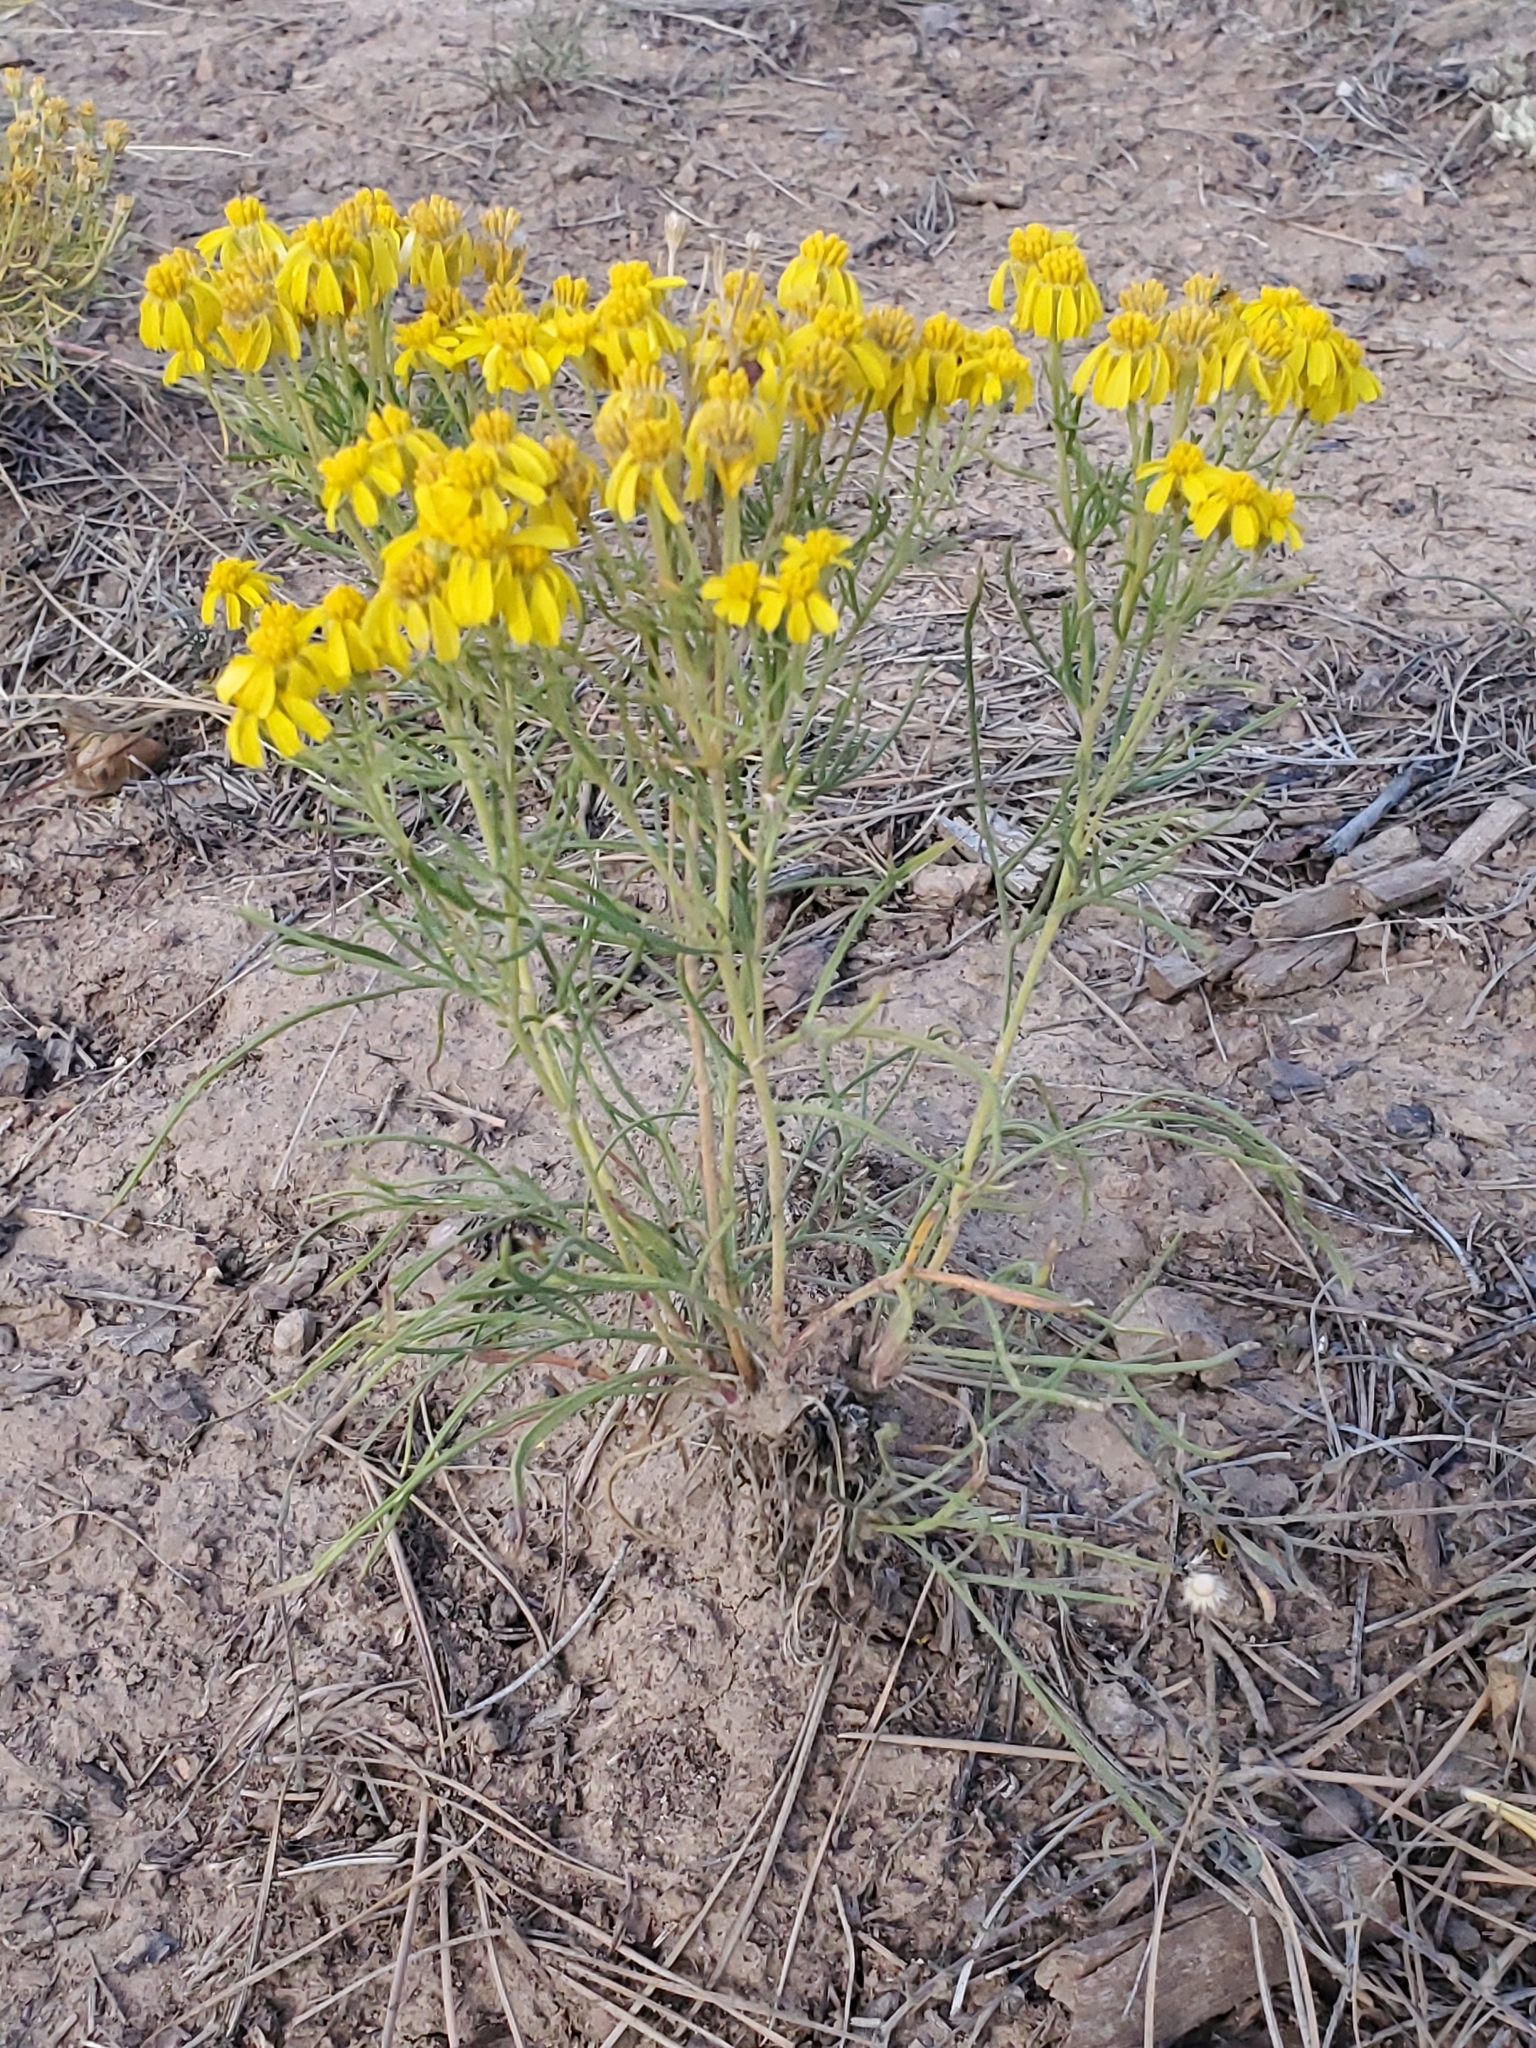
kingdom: Plantae
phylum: Tracheophyta
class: Magnoliopsida
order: Asterales
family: Asteraceae
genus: Hymenoxys
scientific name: Hymenoxys richardsonii
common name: Pingue rubberweed
